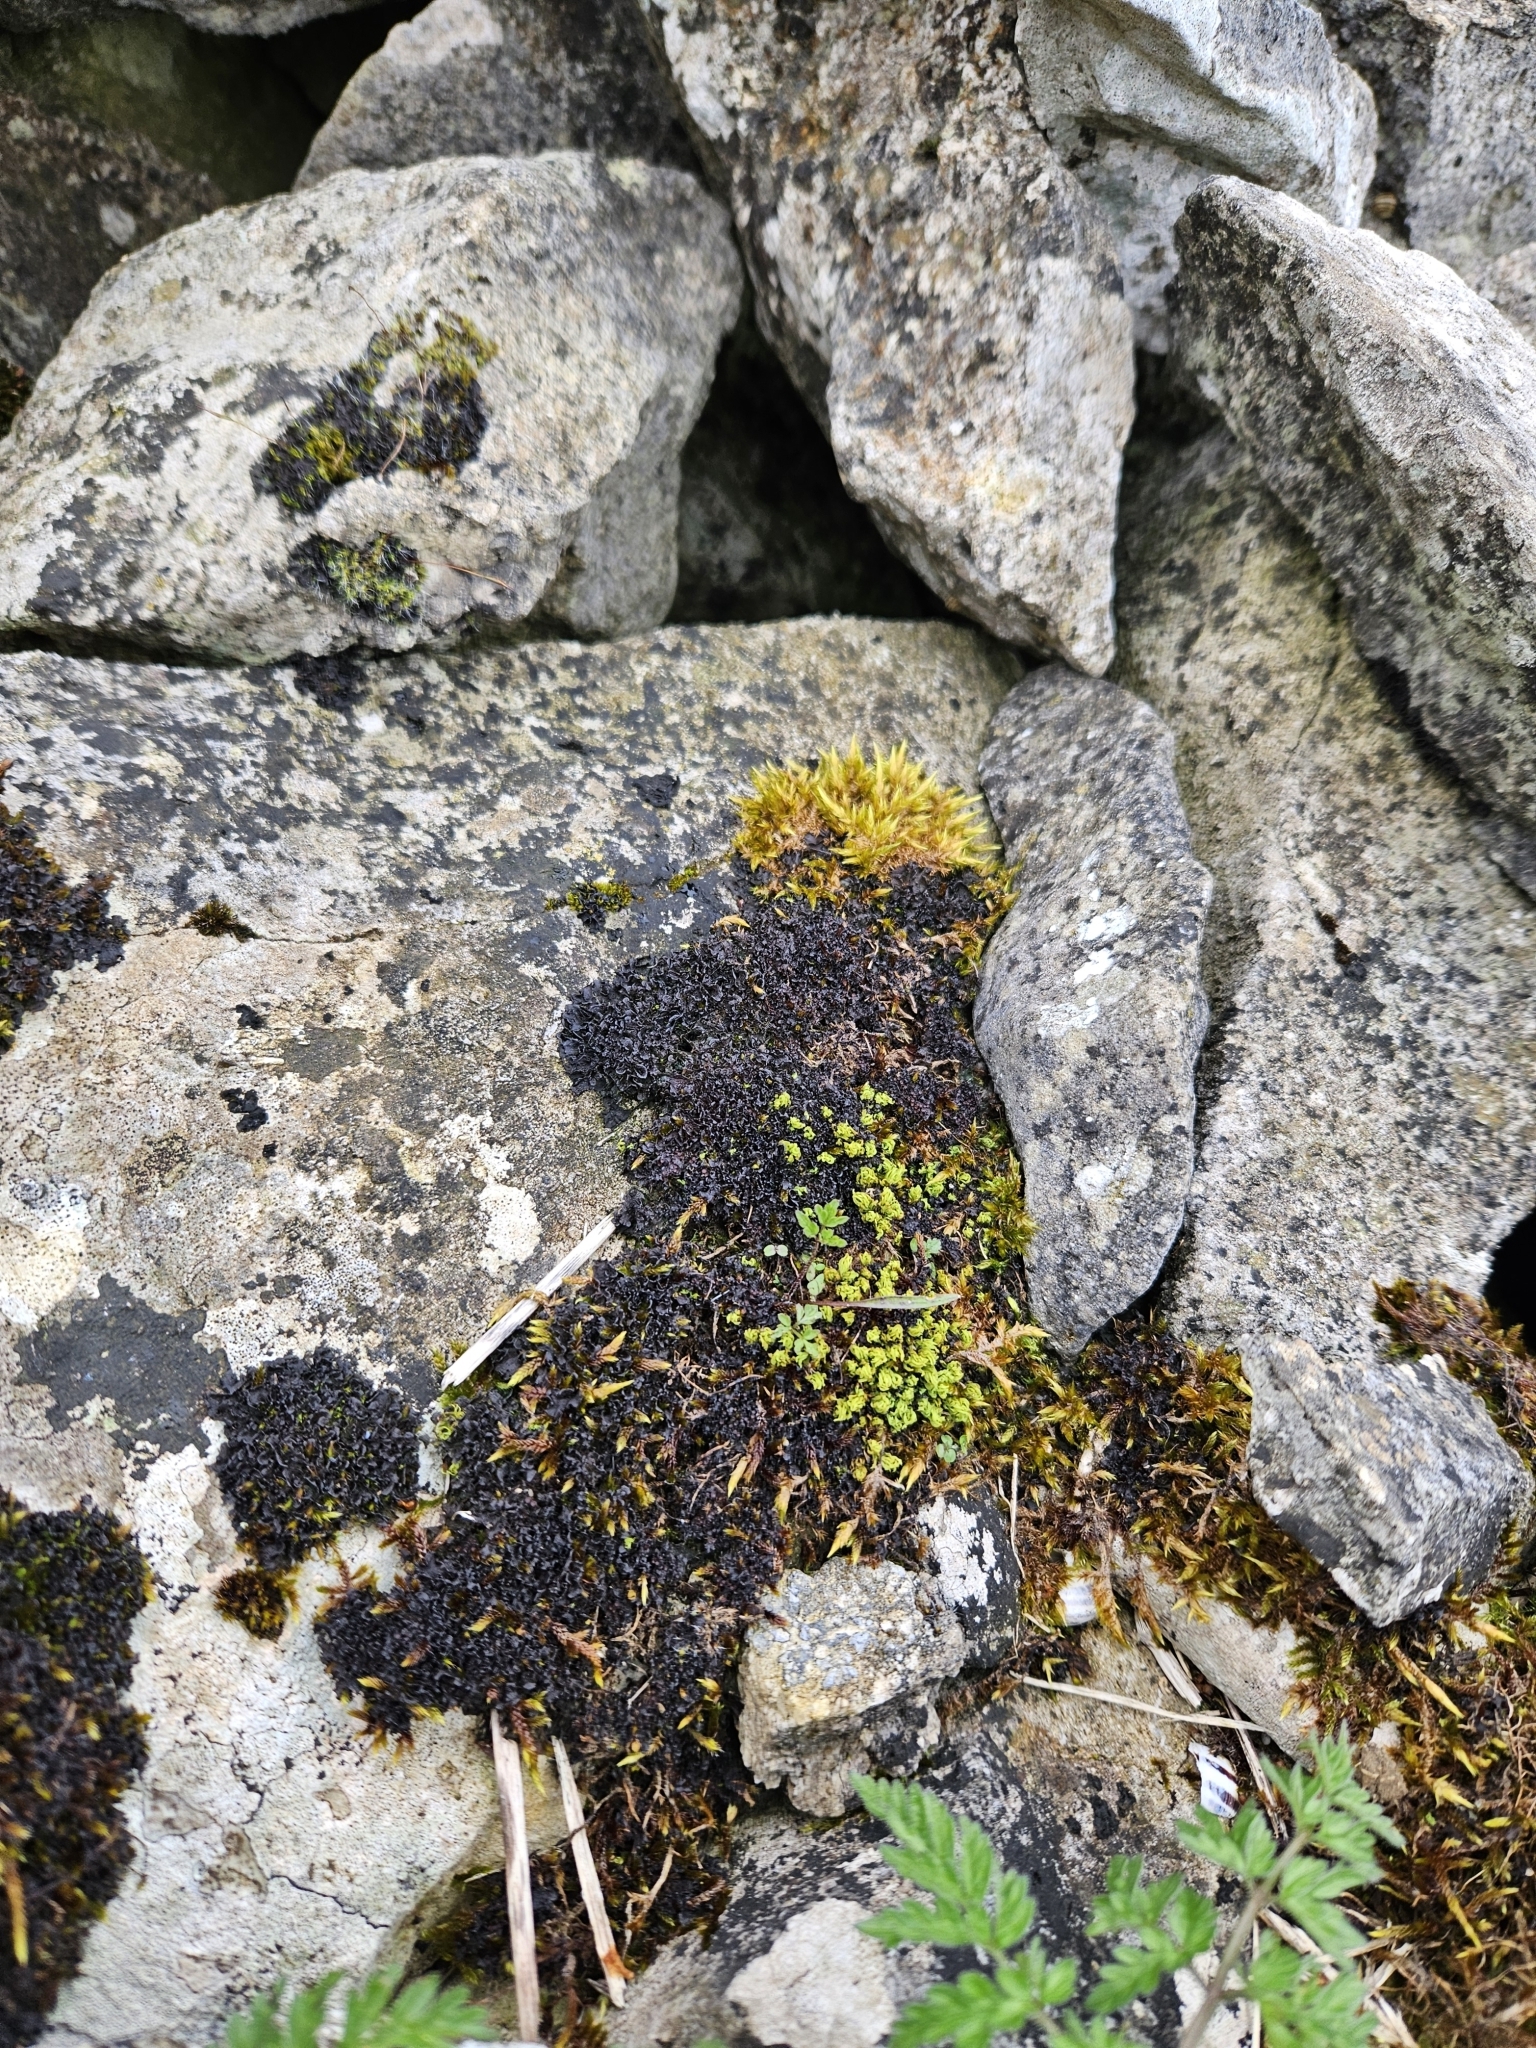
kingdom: Plantae
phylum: Bryophyta
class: Bryopsida
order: Hypnales
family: Pylaisiaceae
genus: Calliergonella
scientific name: Calliergonella cuspidata
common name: Common large wetland moss
